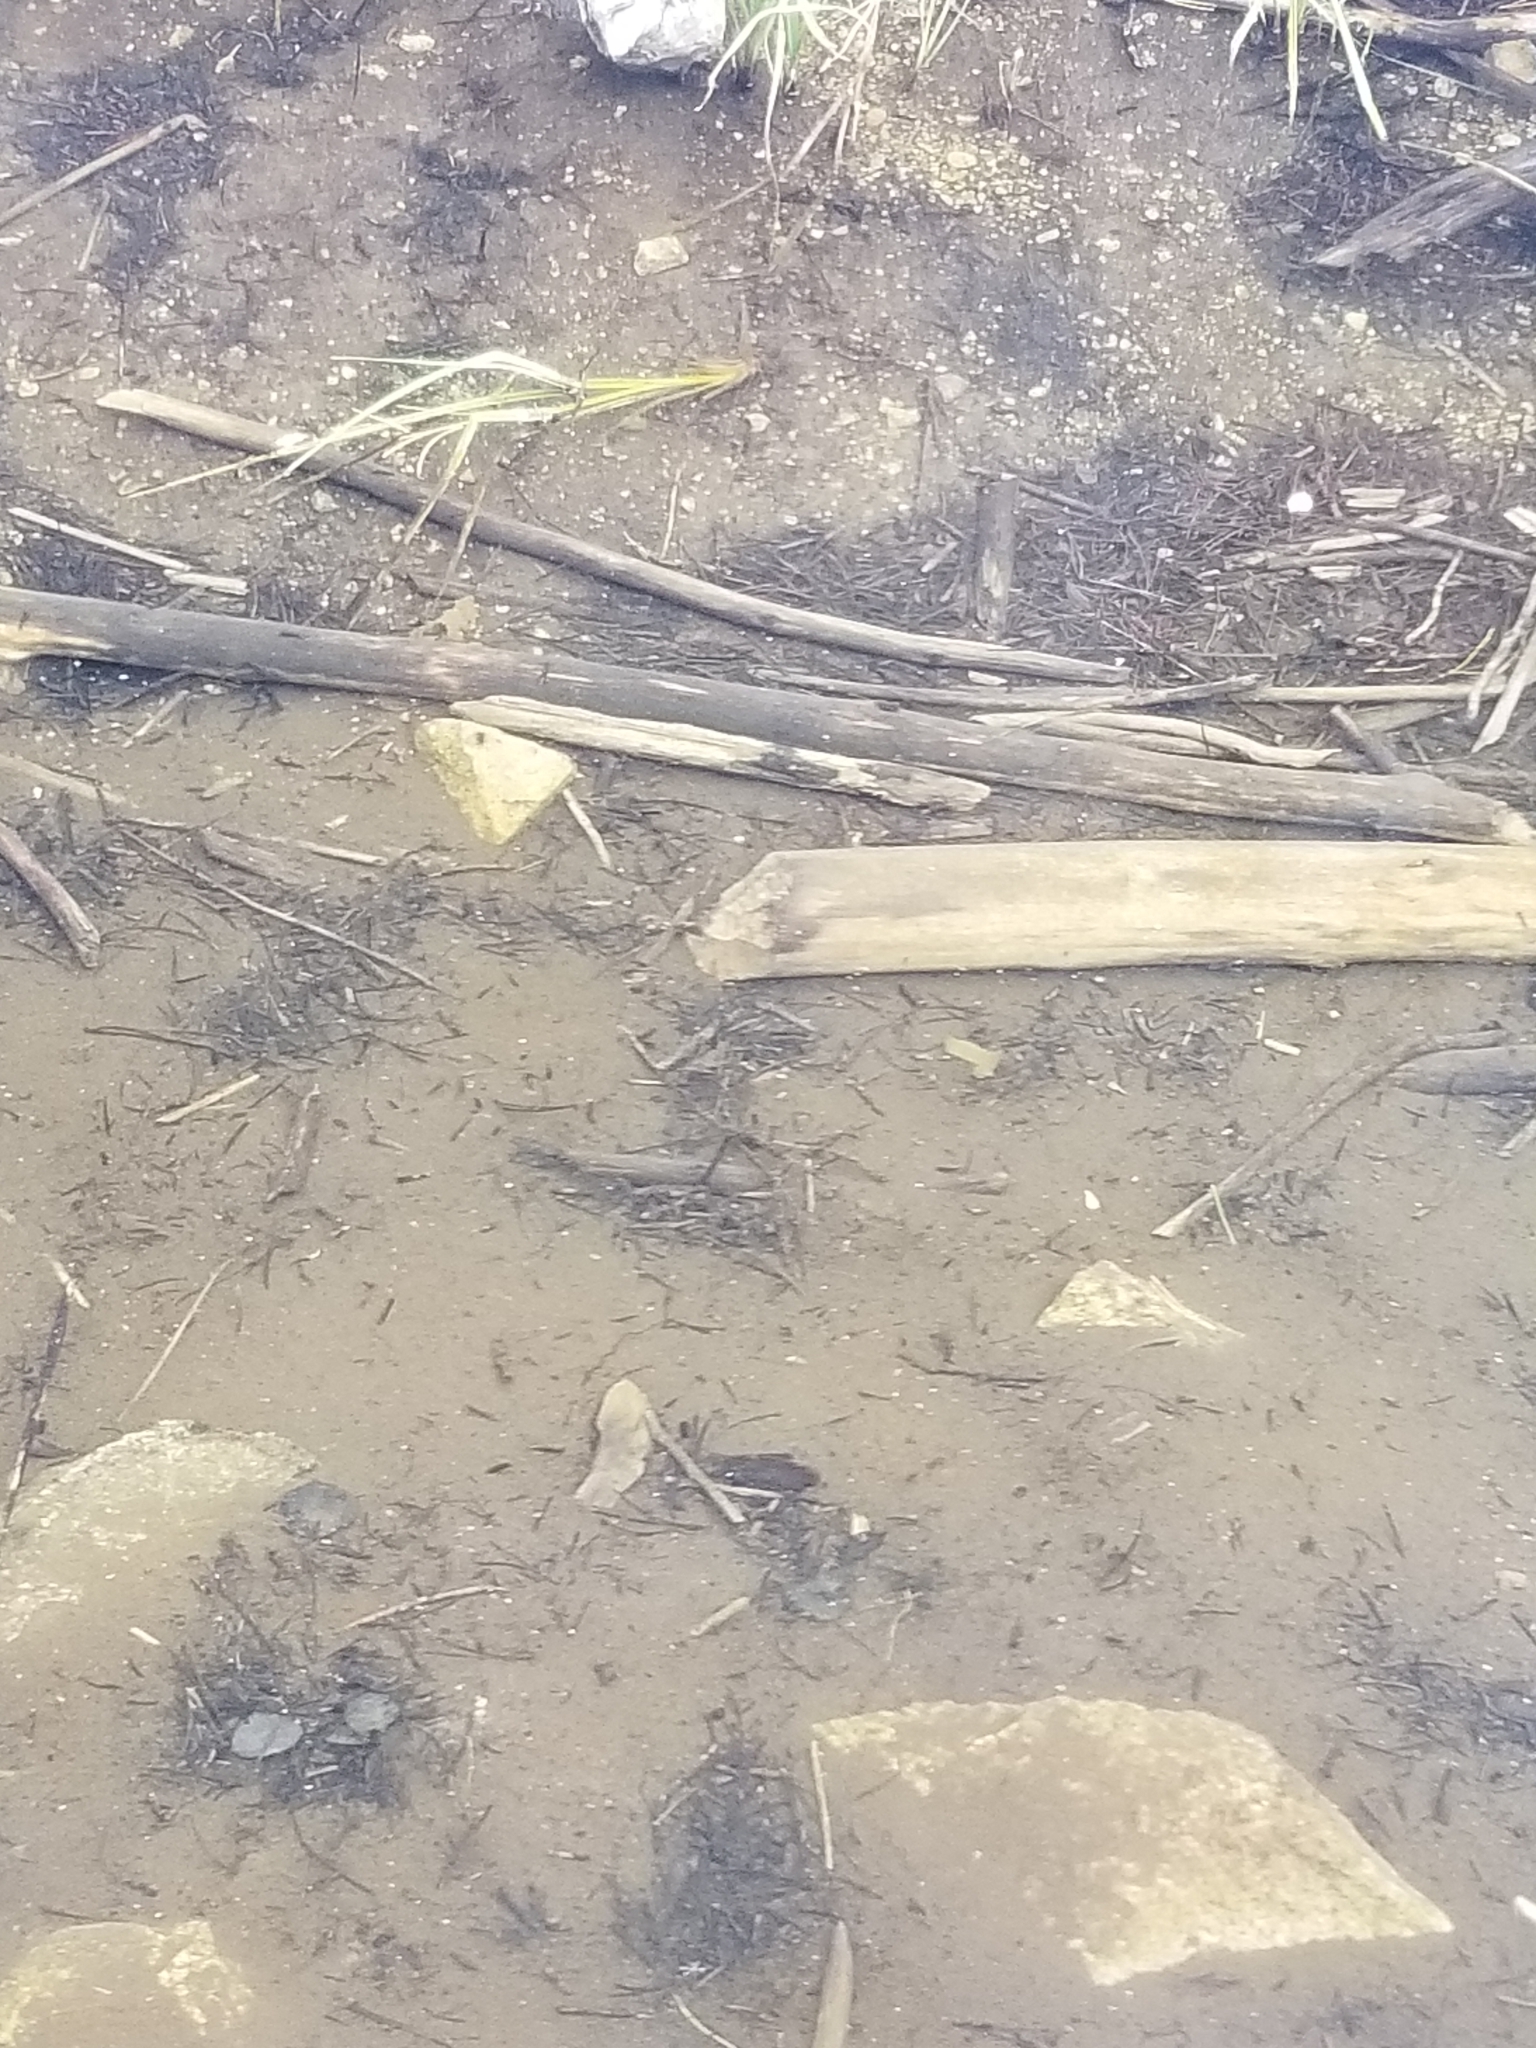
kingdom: Animalia
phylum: Chordata
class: Mammalia
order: Rodentia
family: Castoridae
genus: Castor
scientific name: Castor canadensis
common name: American beaver
